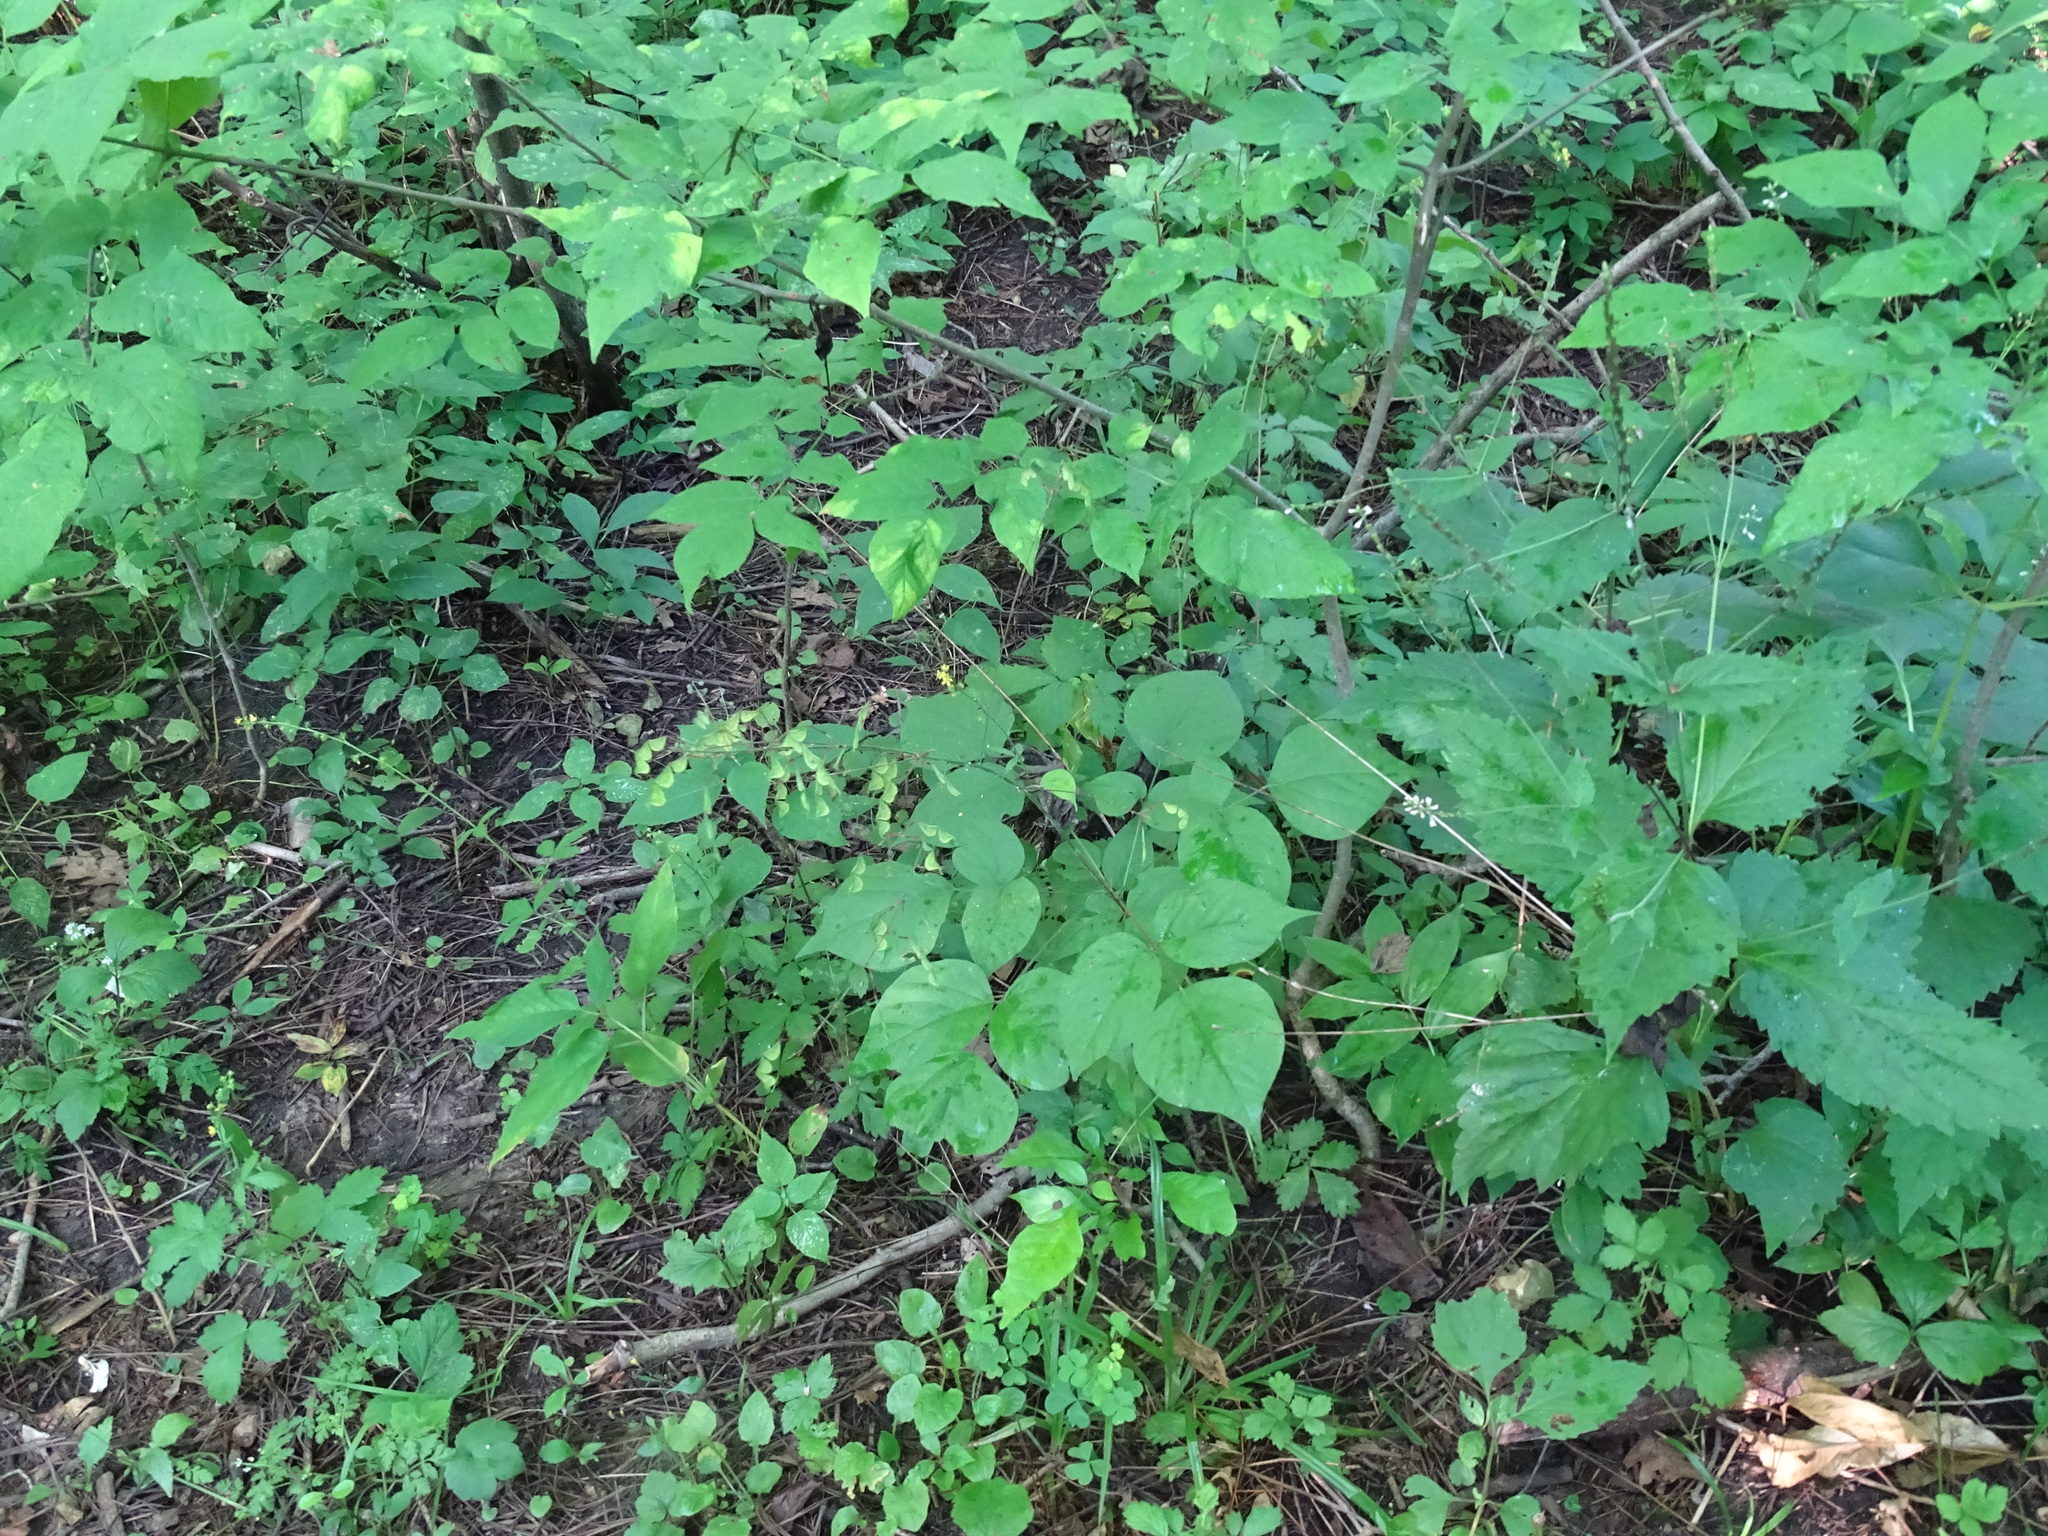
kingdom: Plantae
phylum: Tracheophyta
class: Magnoliopsida
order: Fabales
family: Fabaceae
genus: Hylodesmum
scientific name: Hylodesmum glutinosum
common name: Clustered-leaved tick-trefoil
